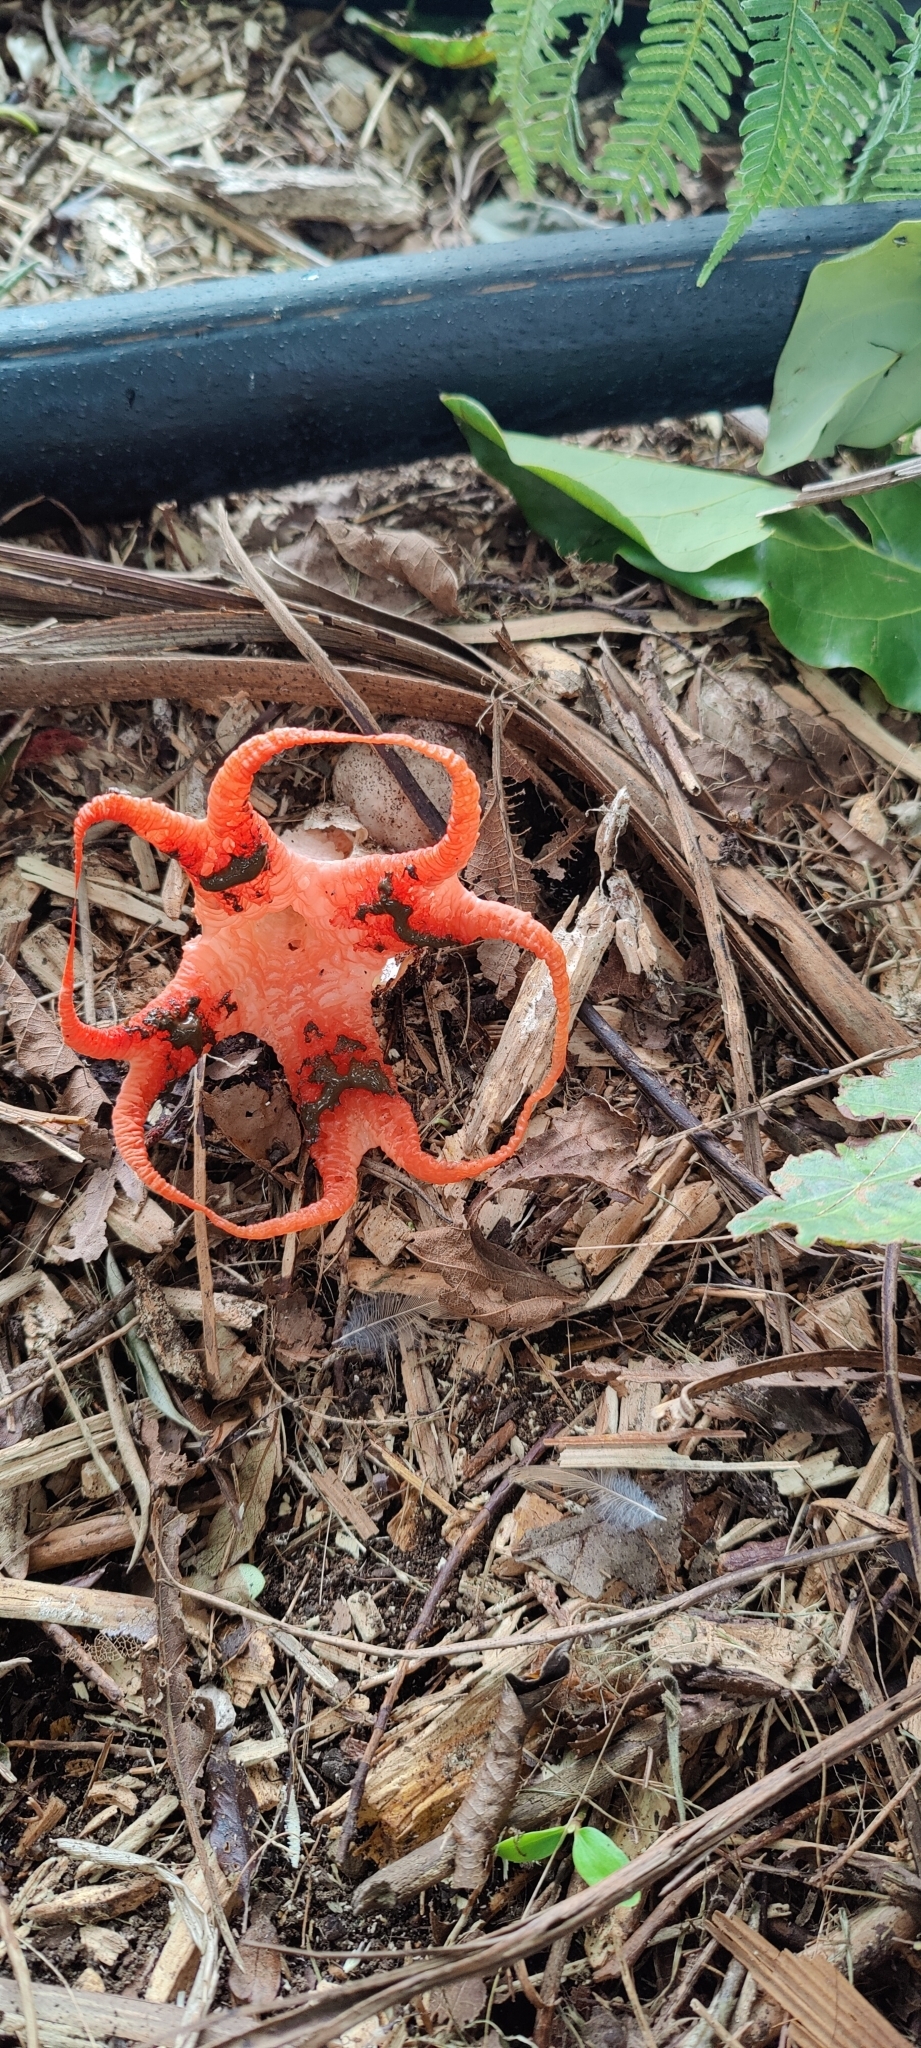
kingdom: Fungi
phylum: Basidiomycota
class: Agaricomycetes
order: Phallales
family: Phallaceae
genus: Clathrus
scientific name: Clathrus archeri
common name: Devil's fingers
